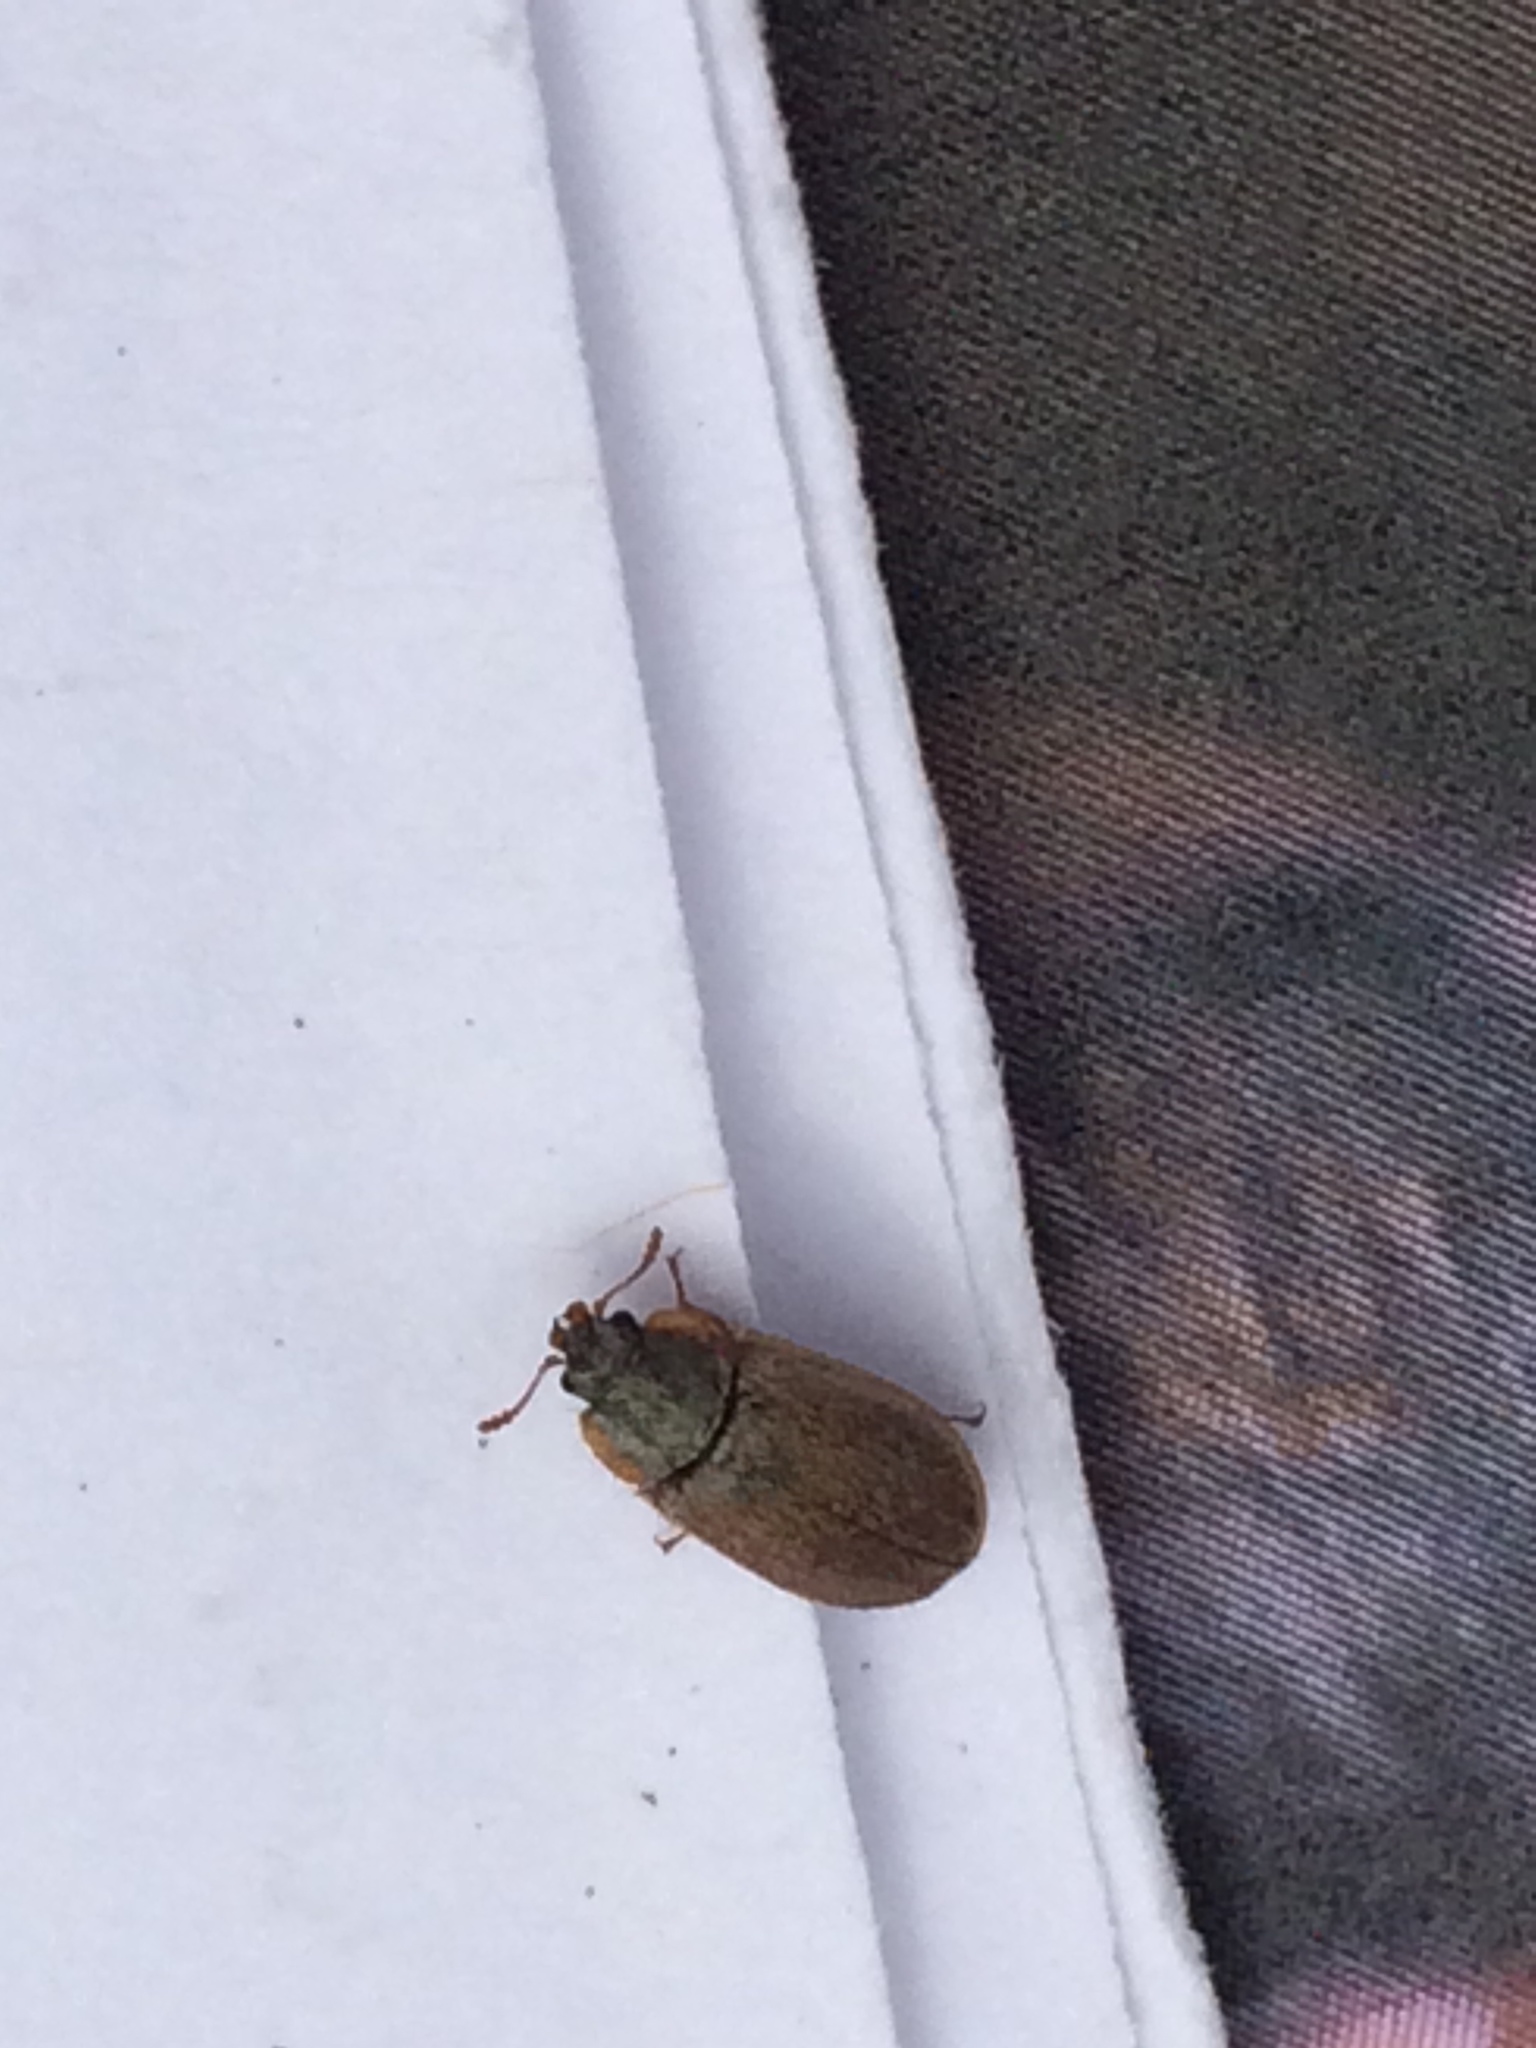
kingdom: Animalia
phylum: Arthropoda
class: Insecta
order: Coleoptera
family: Trogossitidae
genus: Eronyxa
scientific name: Eronyxa pallida
